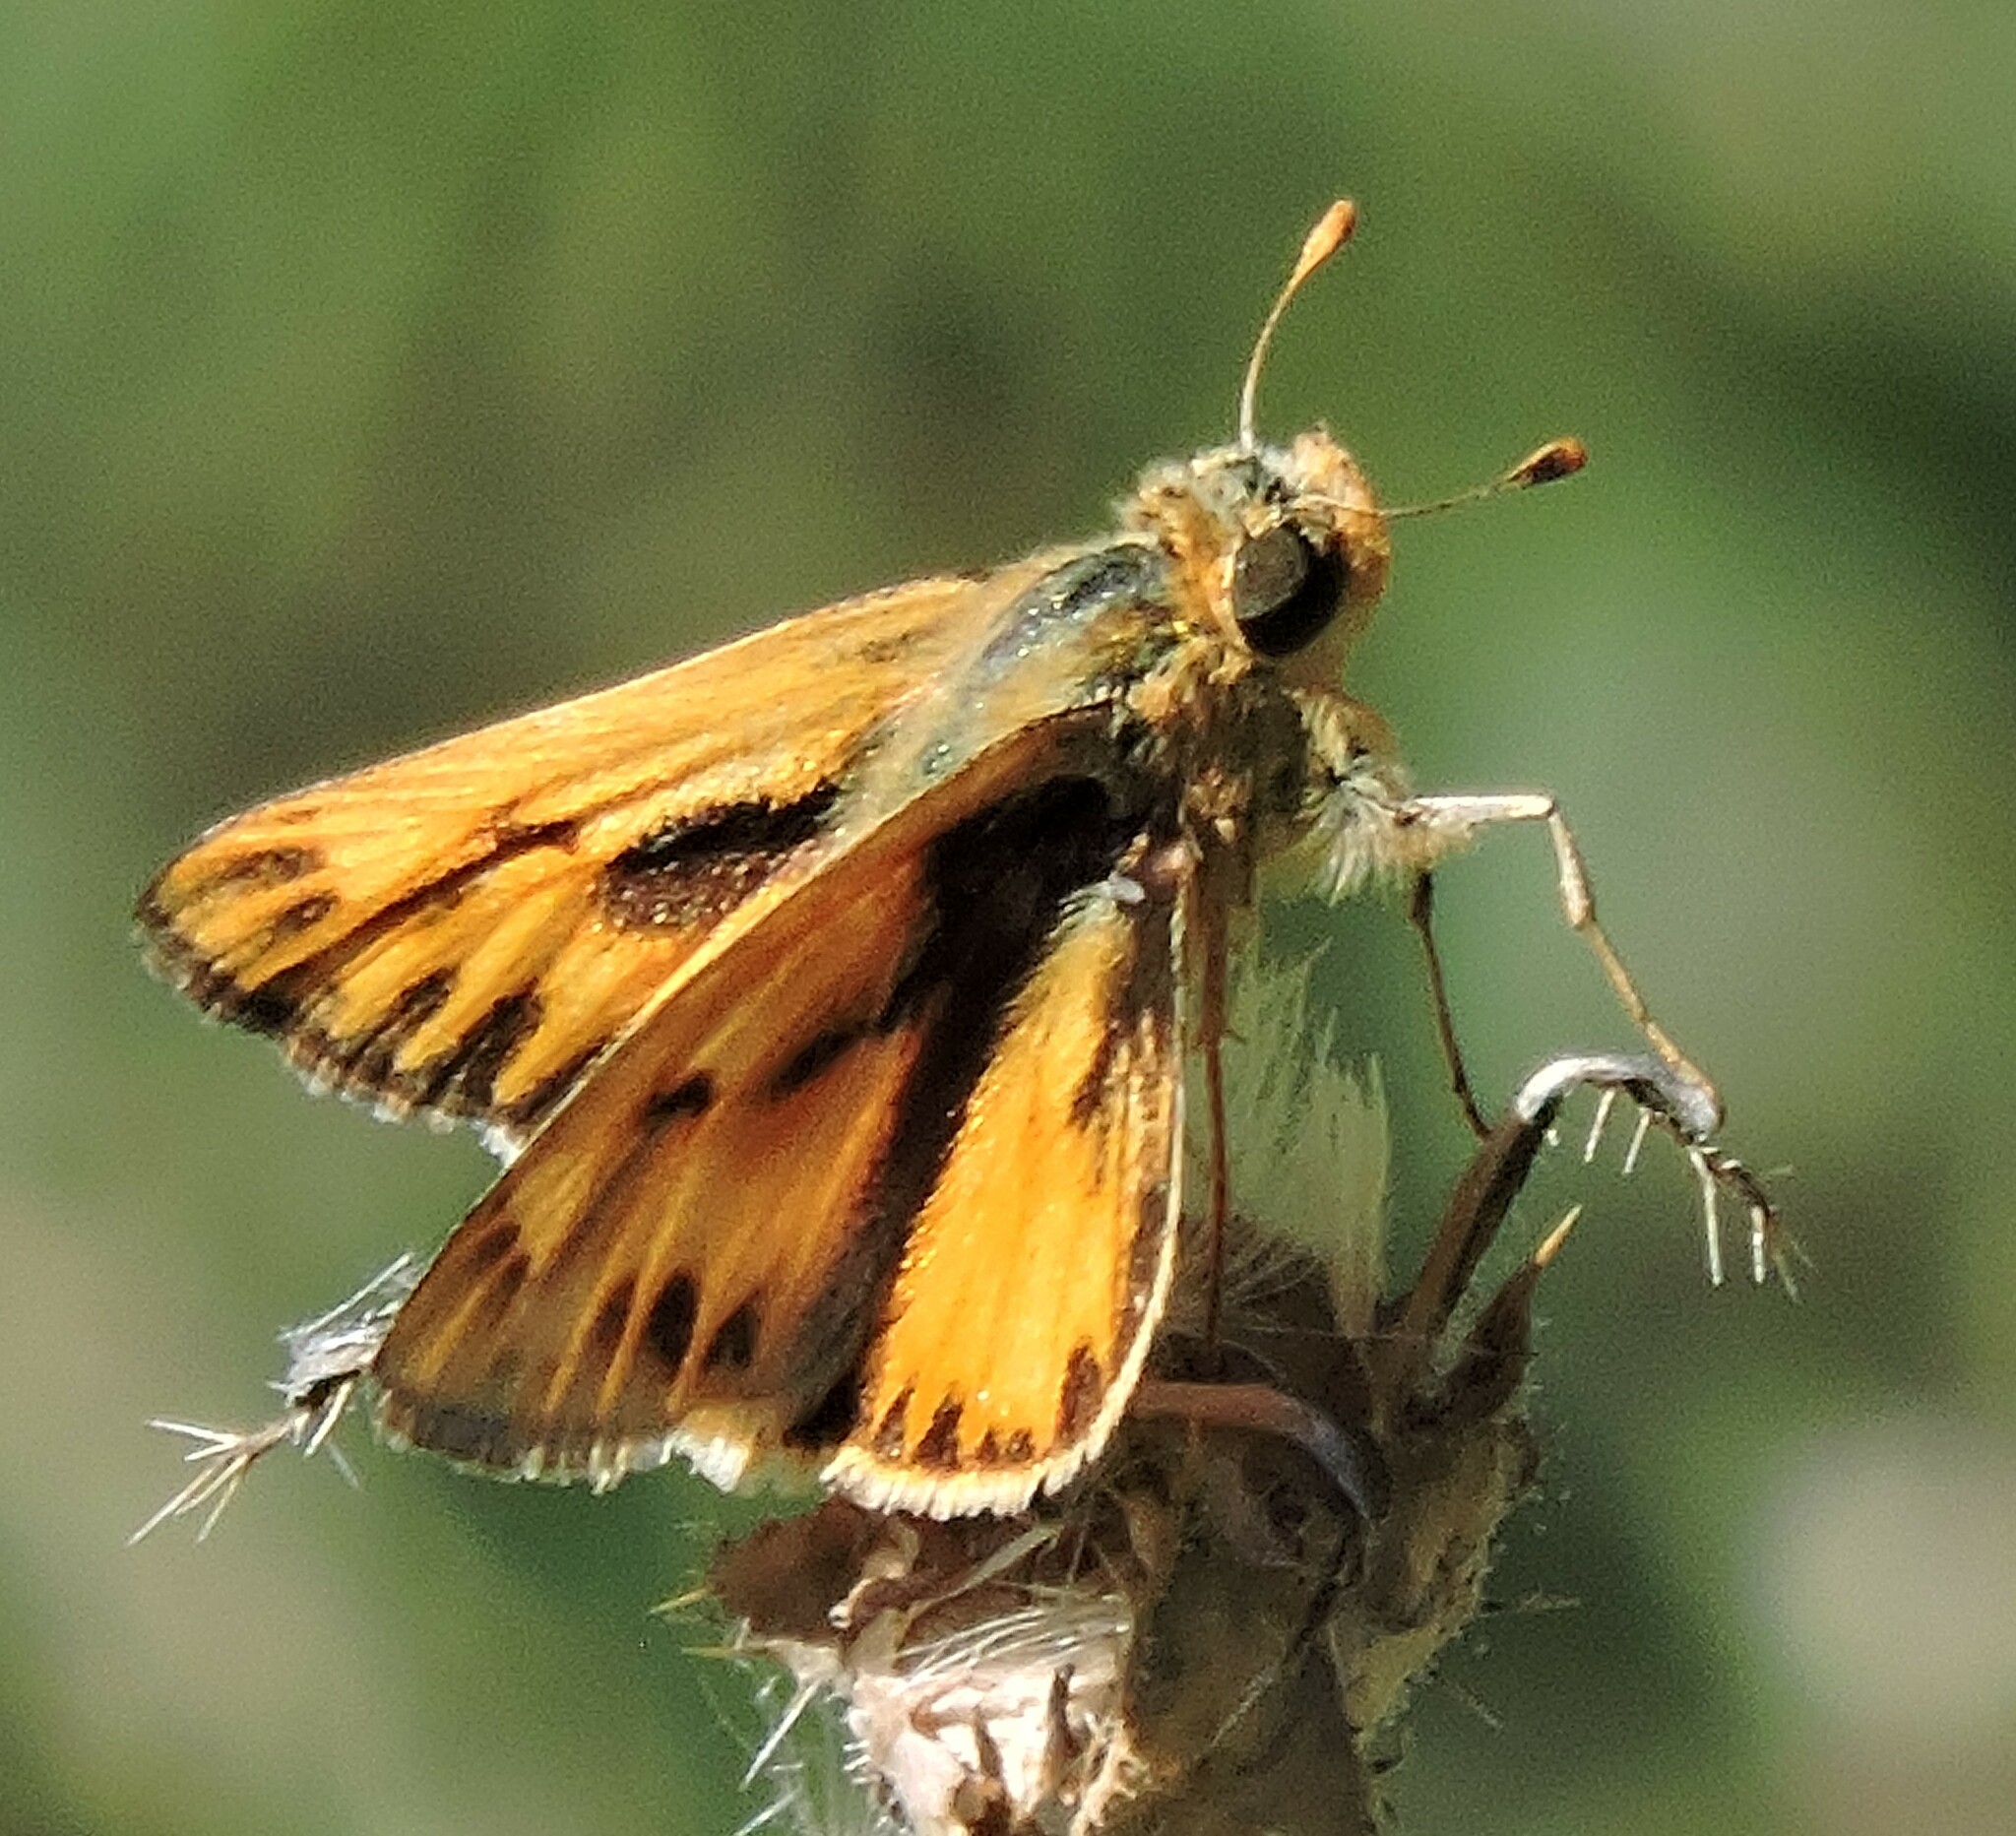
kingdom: Animalia
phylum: Arthropoda
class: Insecta
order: Lepidoptera
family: Hesperiidae
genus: Hylephila
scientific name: Hylephila phyleus
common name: Fiery skipper
